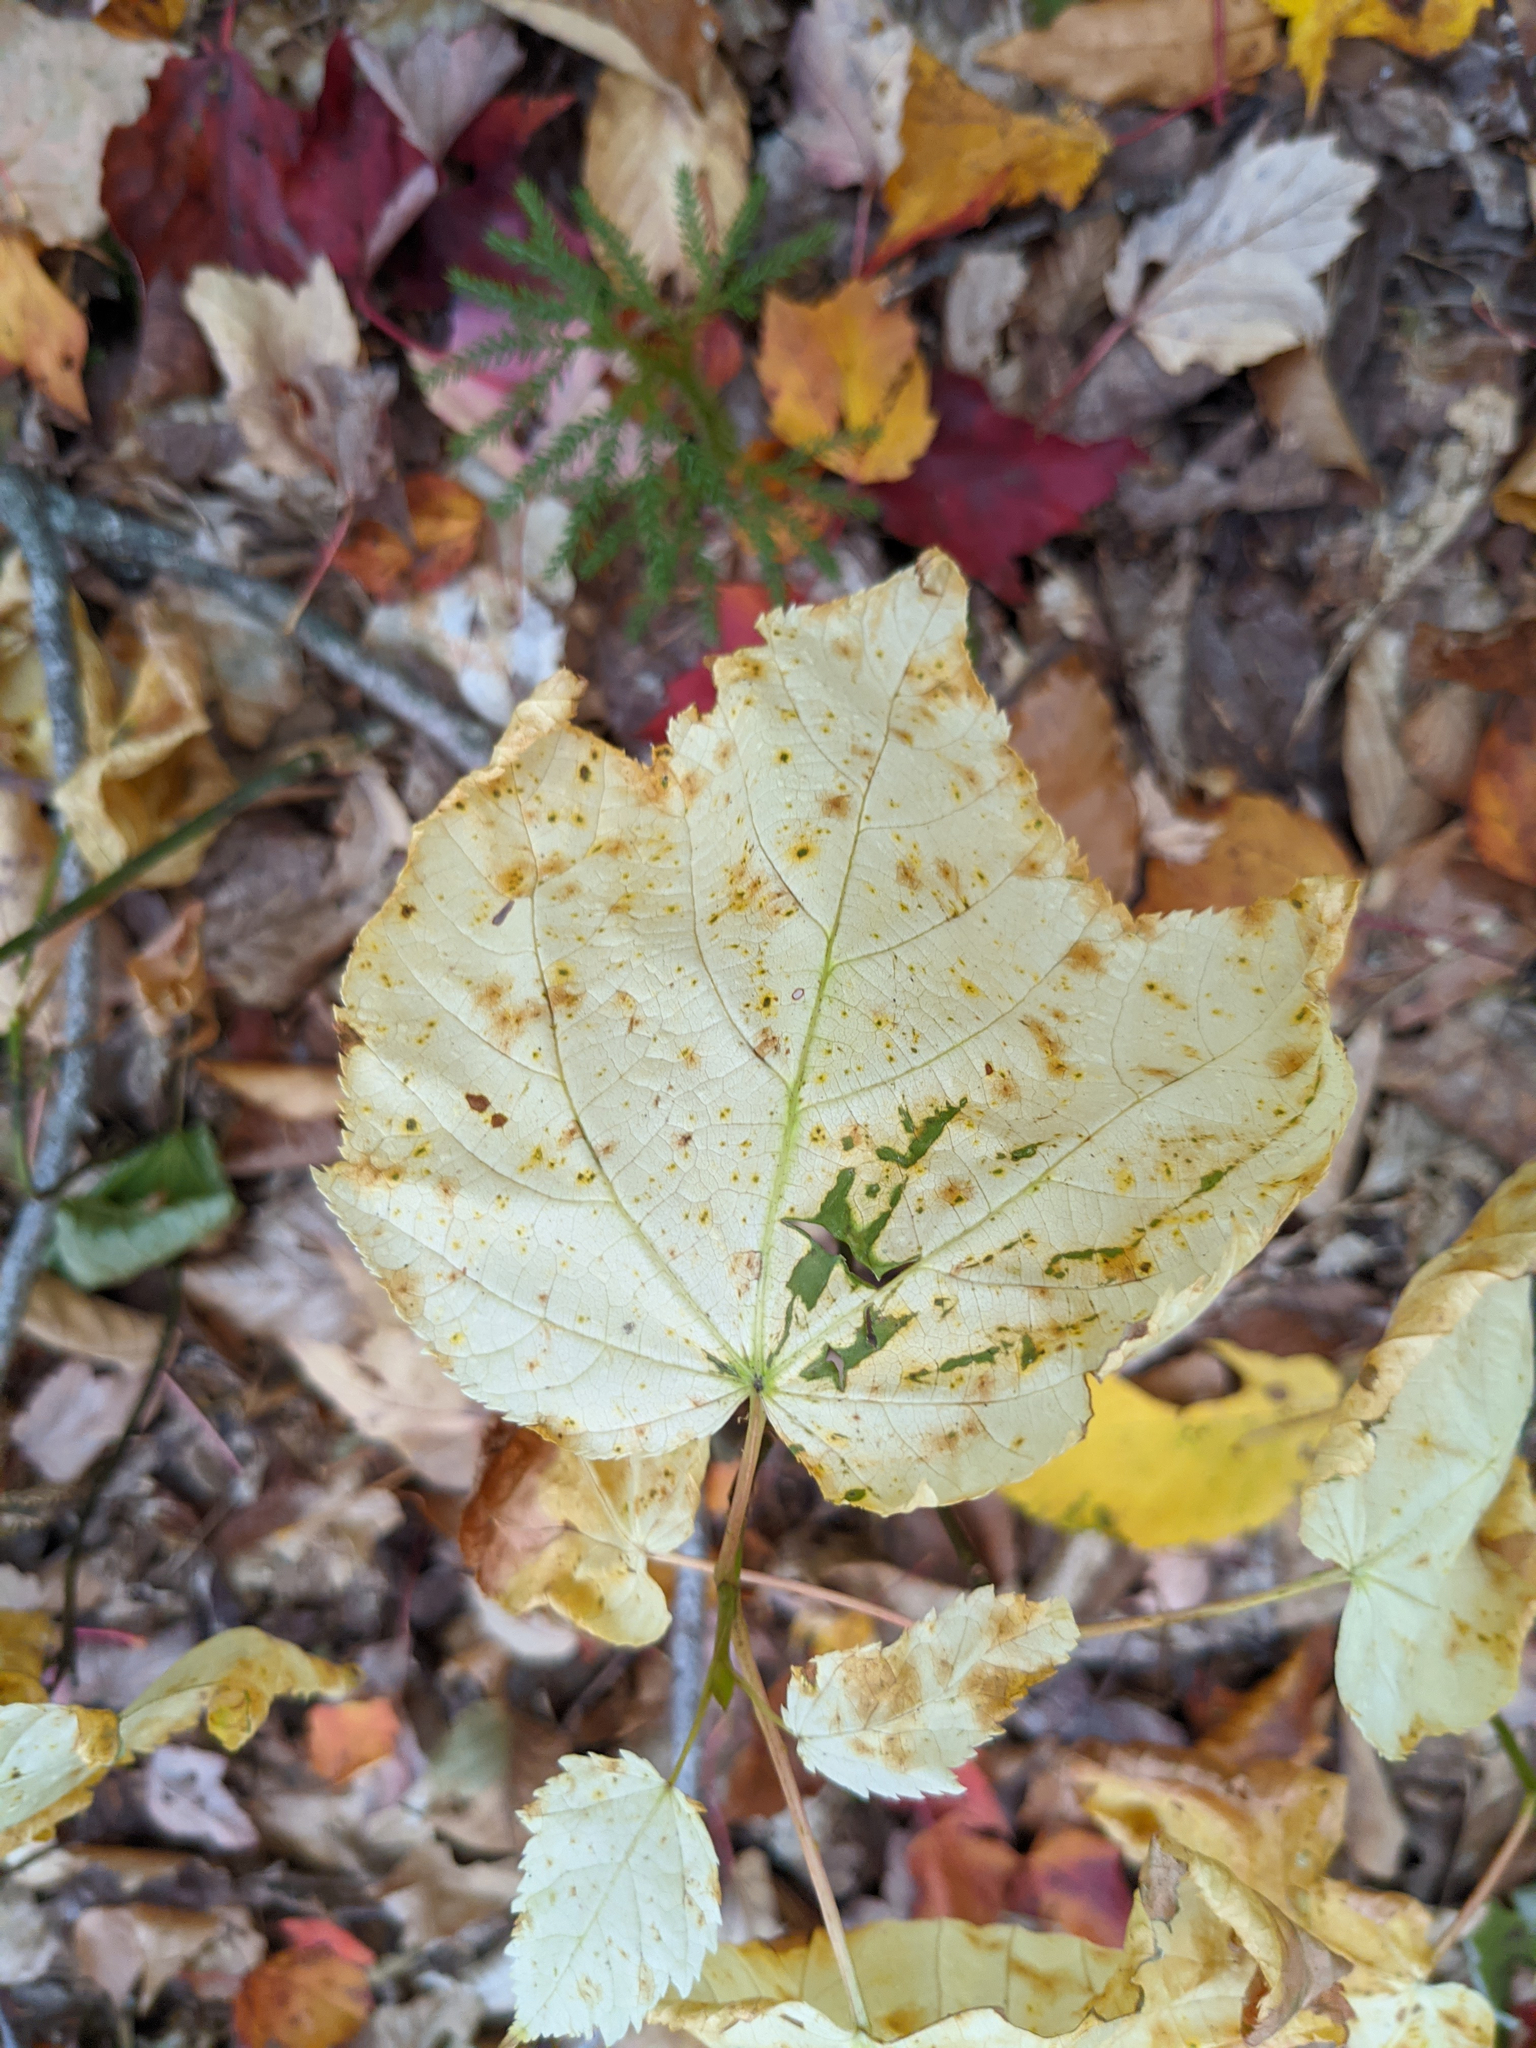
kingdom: Plantae
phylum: Tracheophyta
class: Magnoliopsida
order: Sapindales
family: Sapindaceae
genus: Acer
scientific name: Acer pensylvanicum
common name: Moosewood
